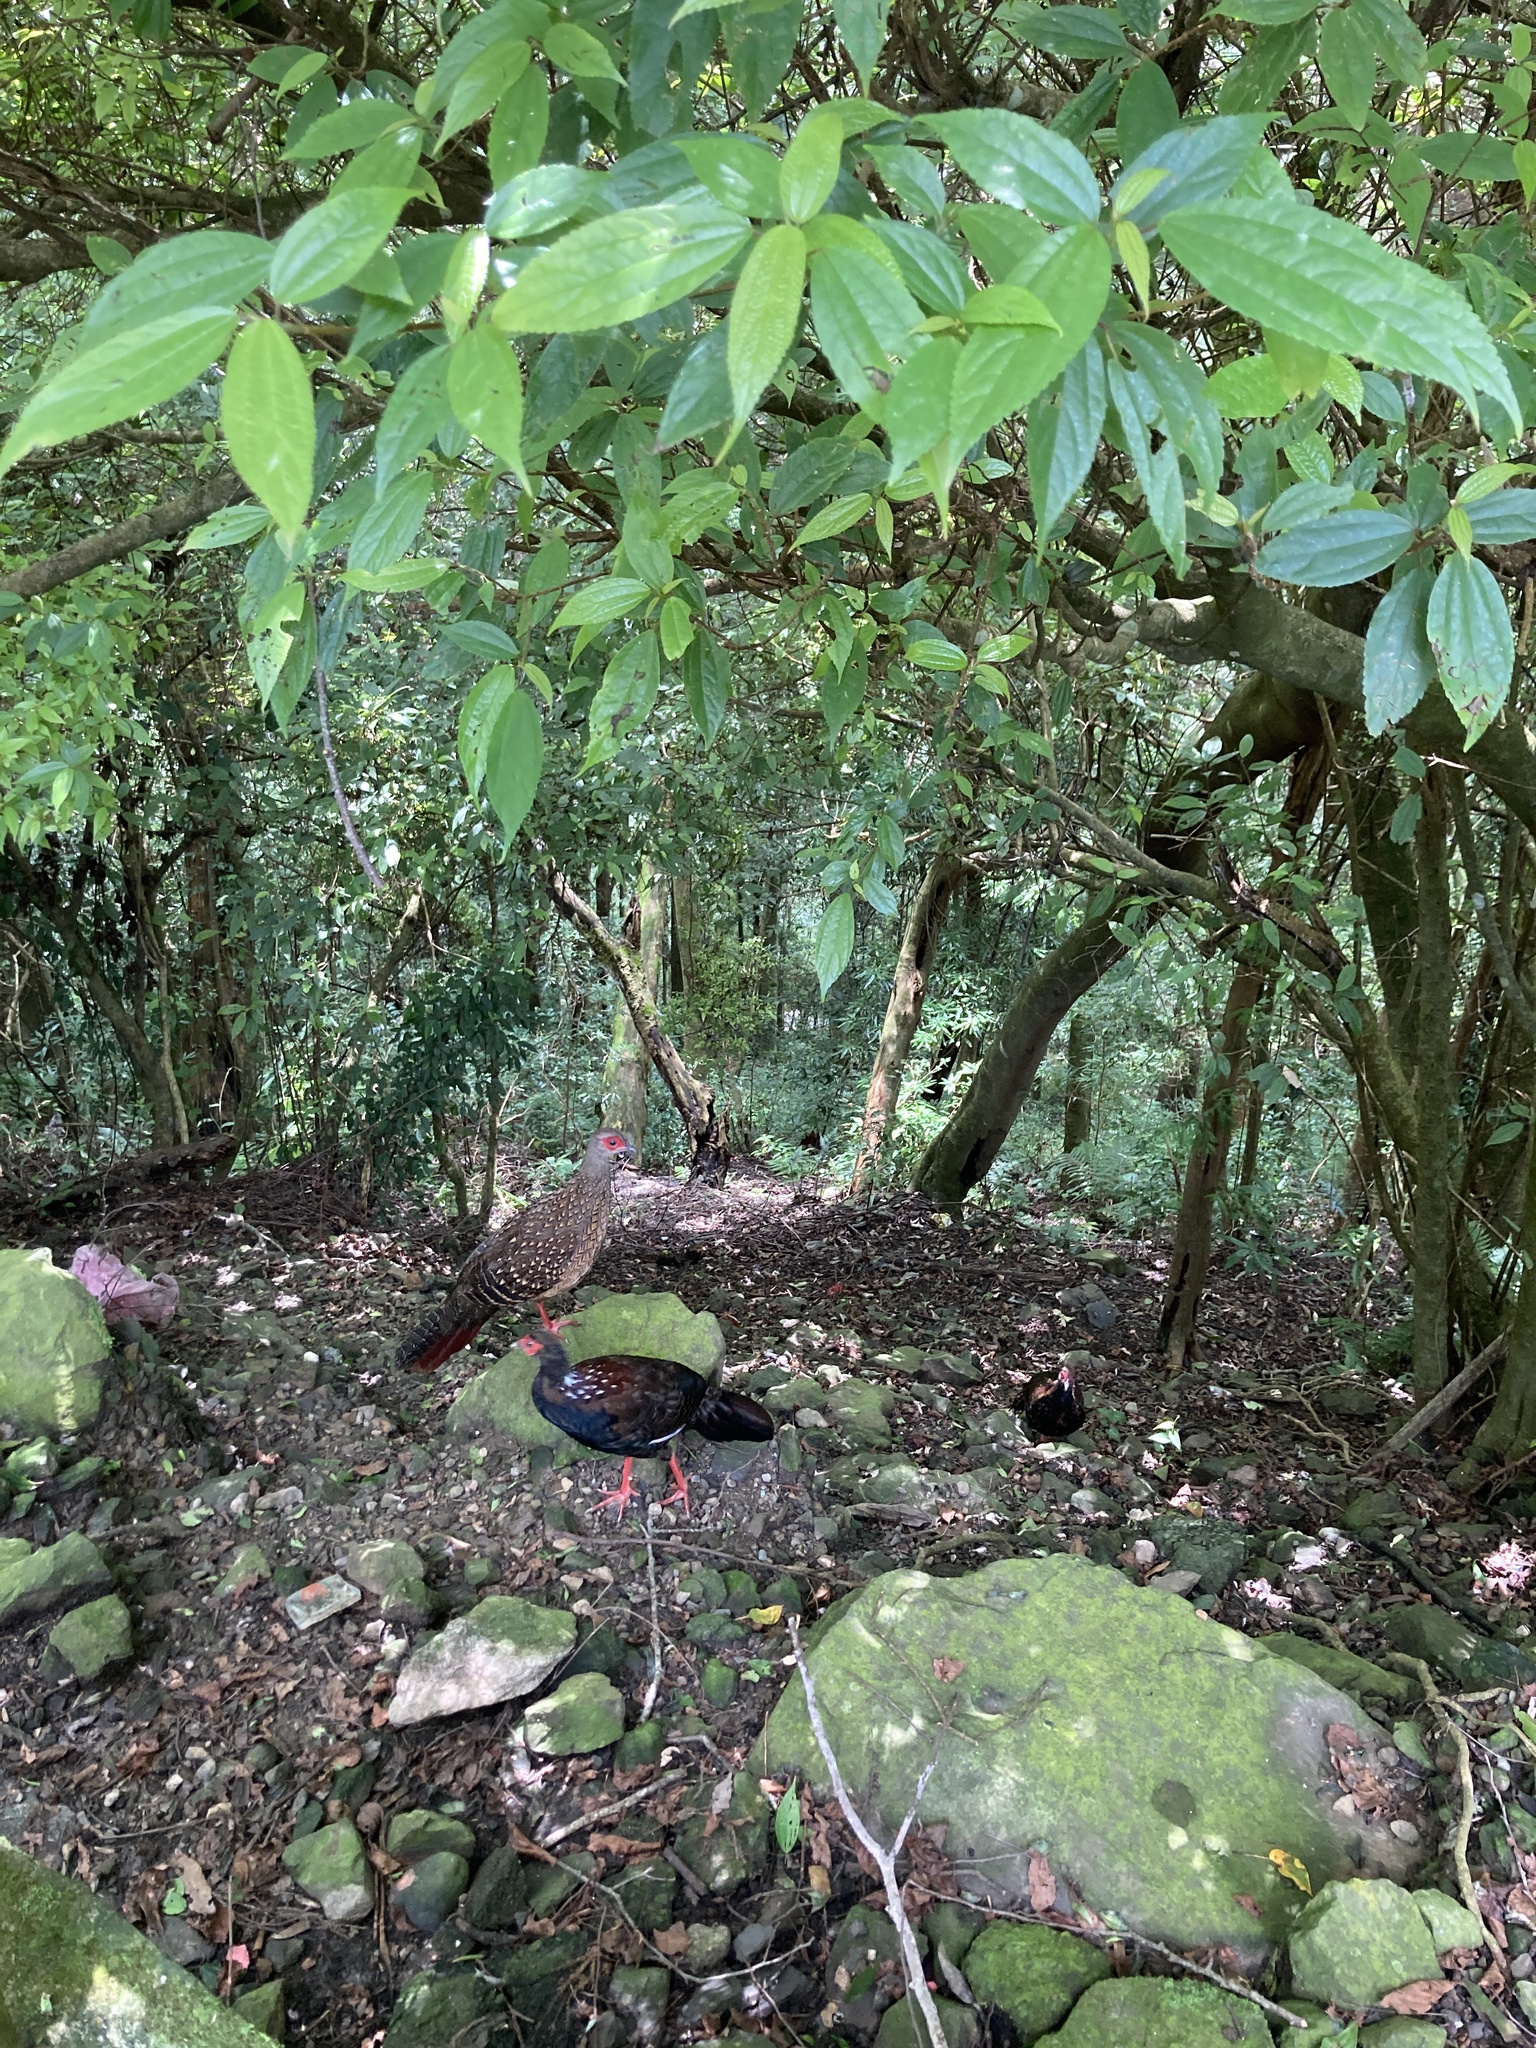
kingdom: Animalia
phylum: Chordata
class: Aves
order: Galliformes
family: Phasianidae
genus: Lophura
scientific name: Lophura swinhoii
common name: Swinhoe's pheasant
